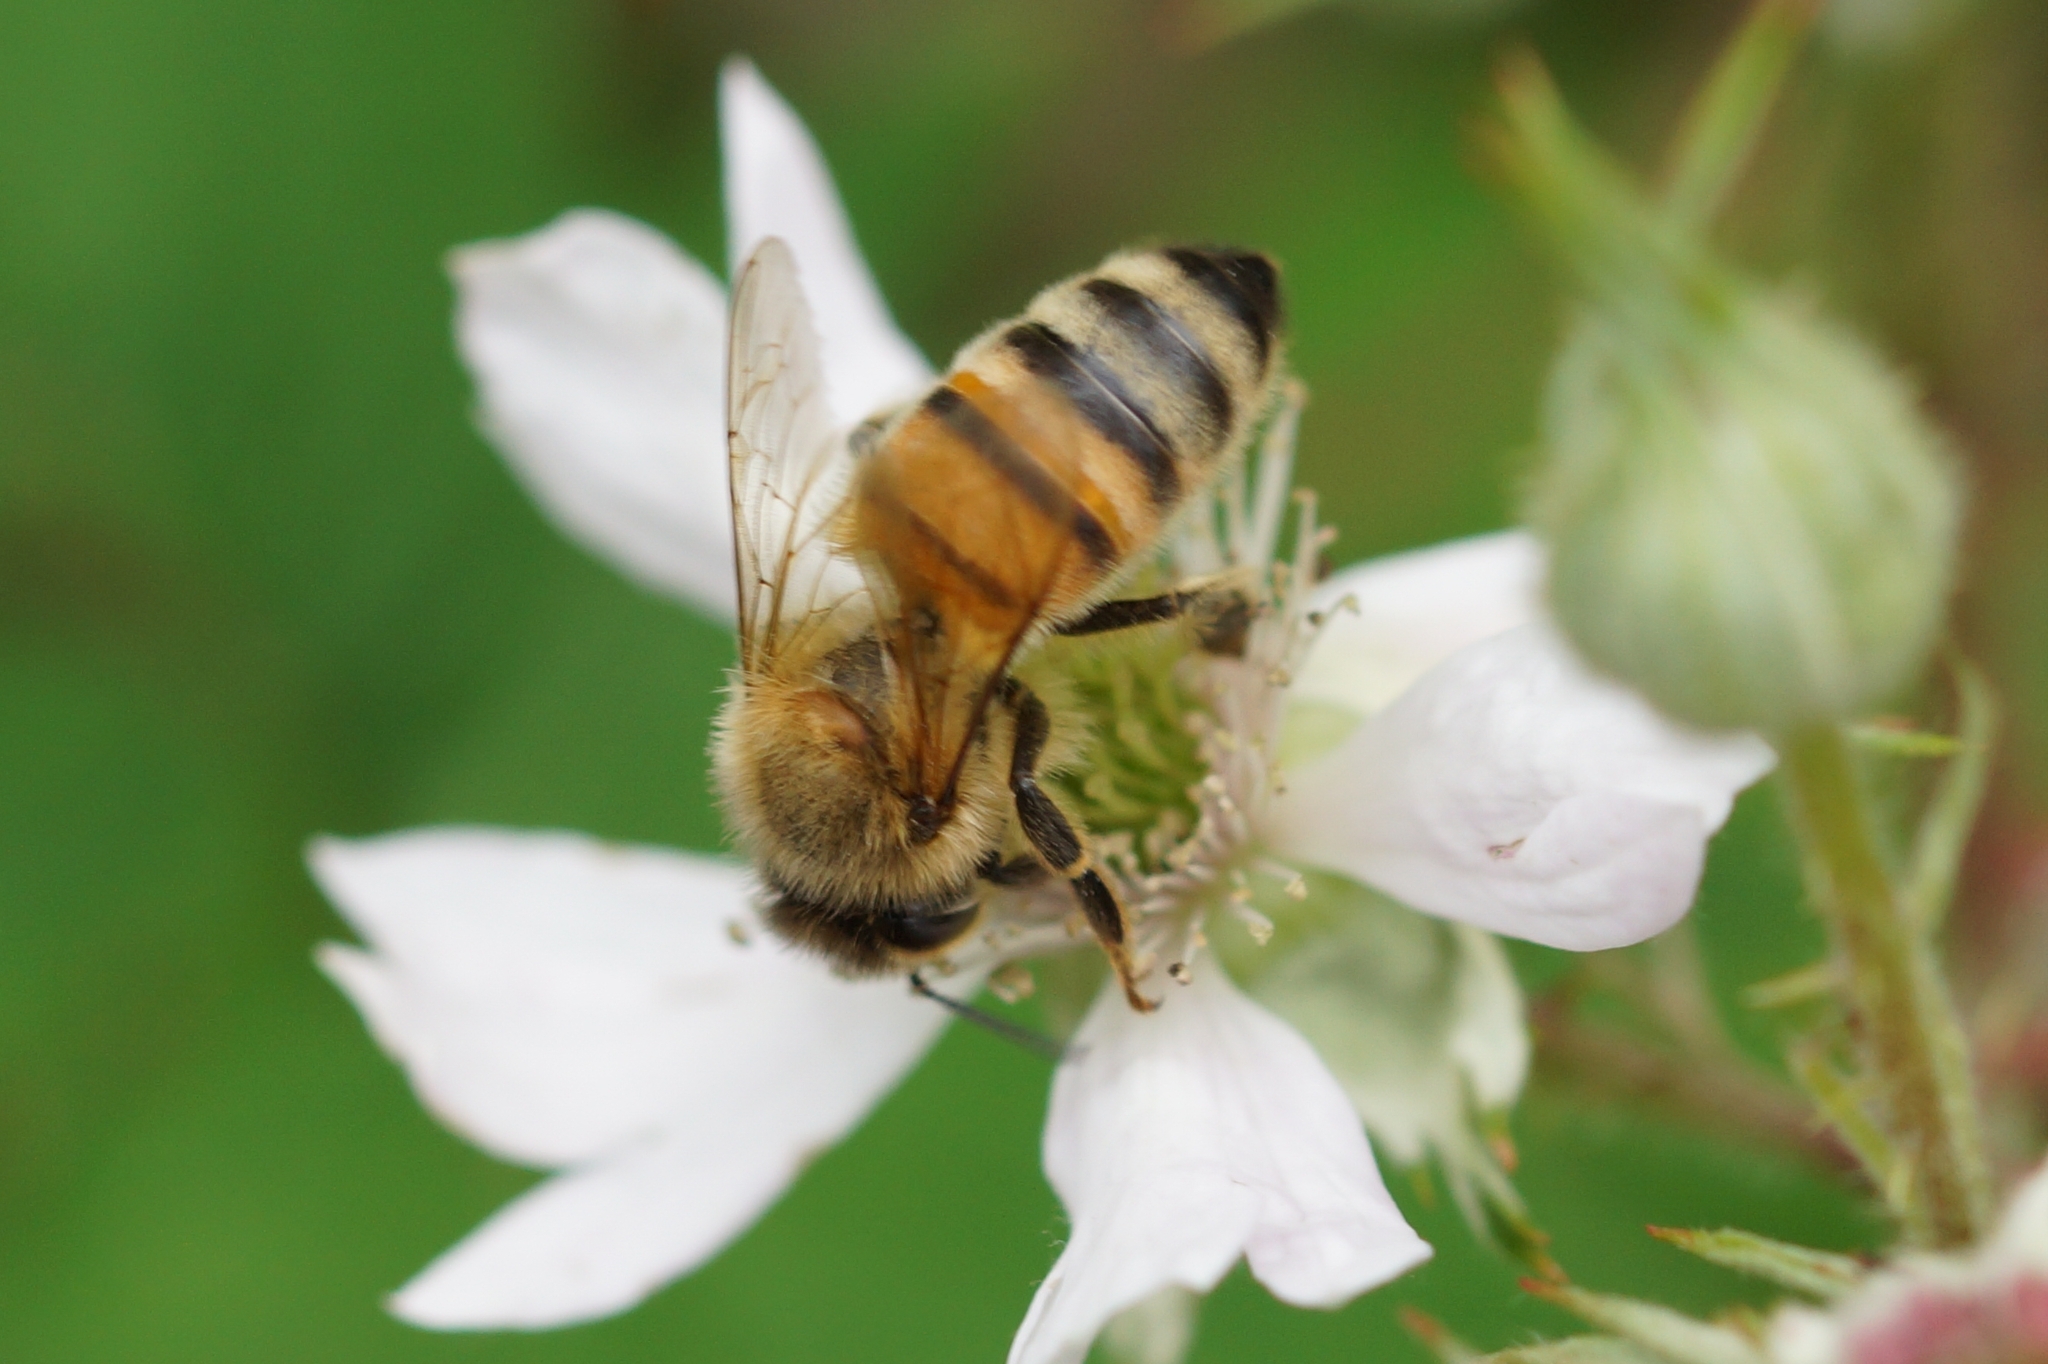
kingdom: Animalia
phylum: Arthropoda
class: Insecta
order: Hymenoptera
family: Apidae
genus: Apis
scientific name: Apis mellifera
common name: Honey bee
